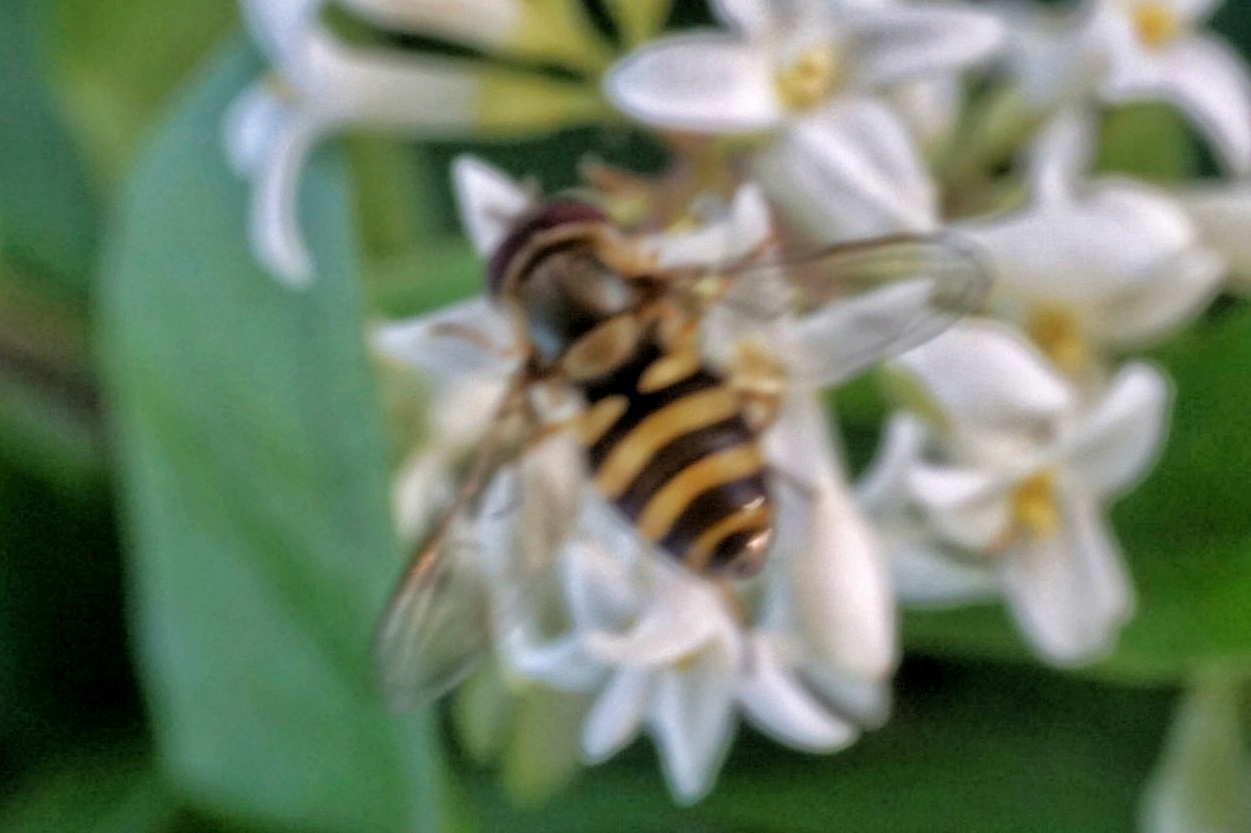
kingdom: Animalia
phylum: Arthropoda
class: Insecta
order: Diptera
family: Syrphidae
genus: Syrphus
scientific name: Syrphus rectus
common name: Yellow-legged flower fly
